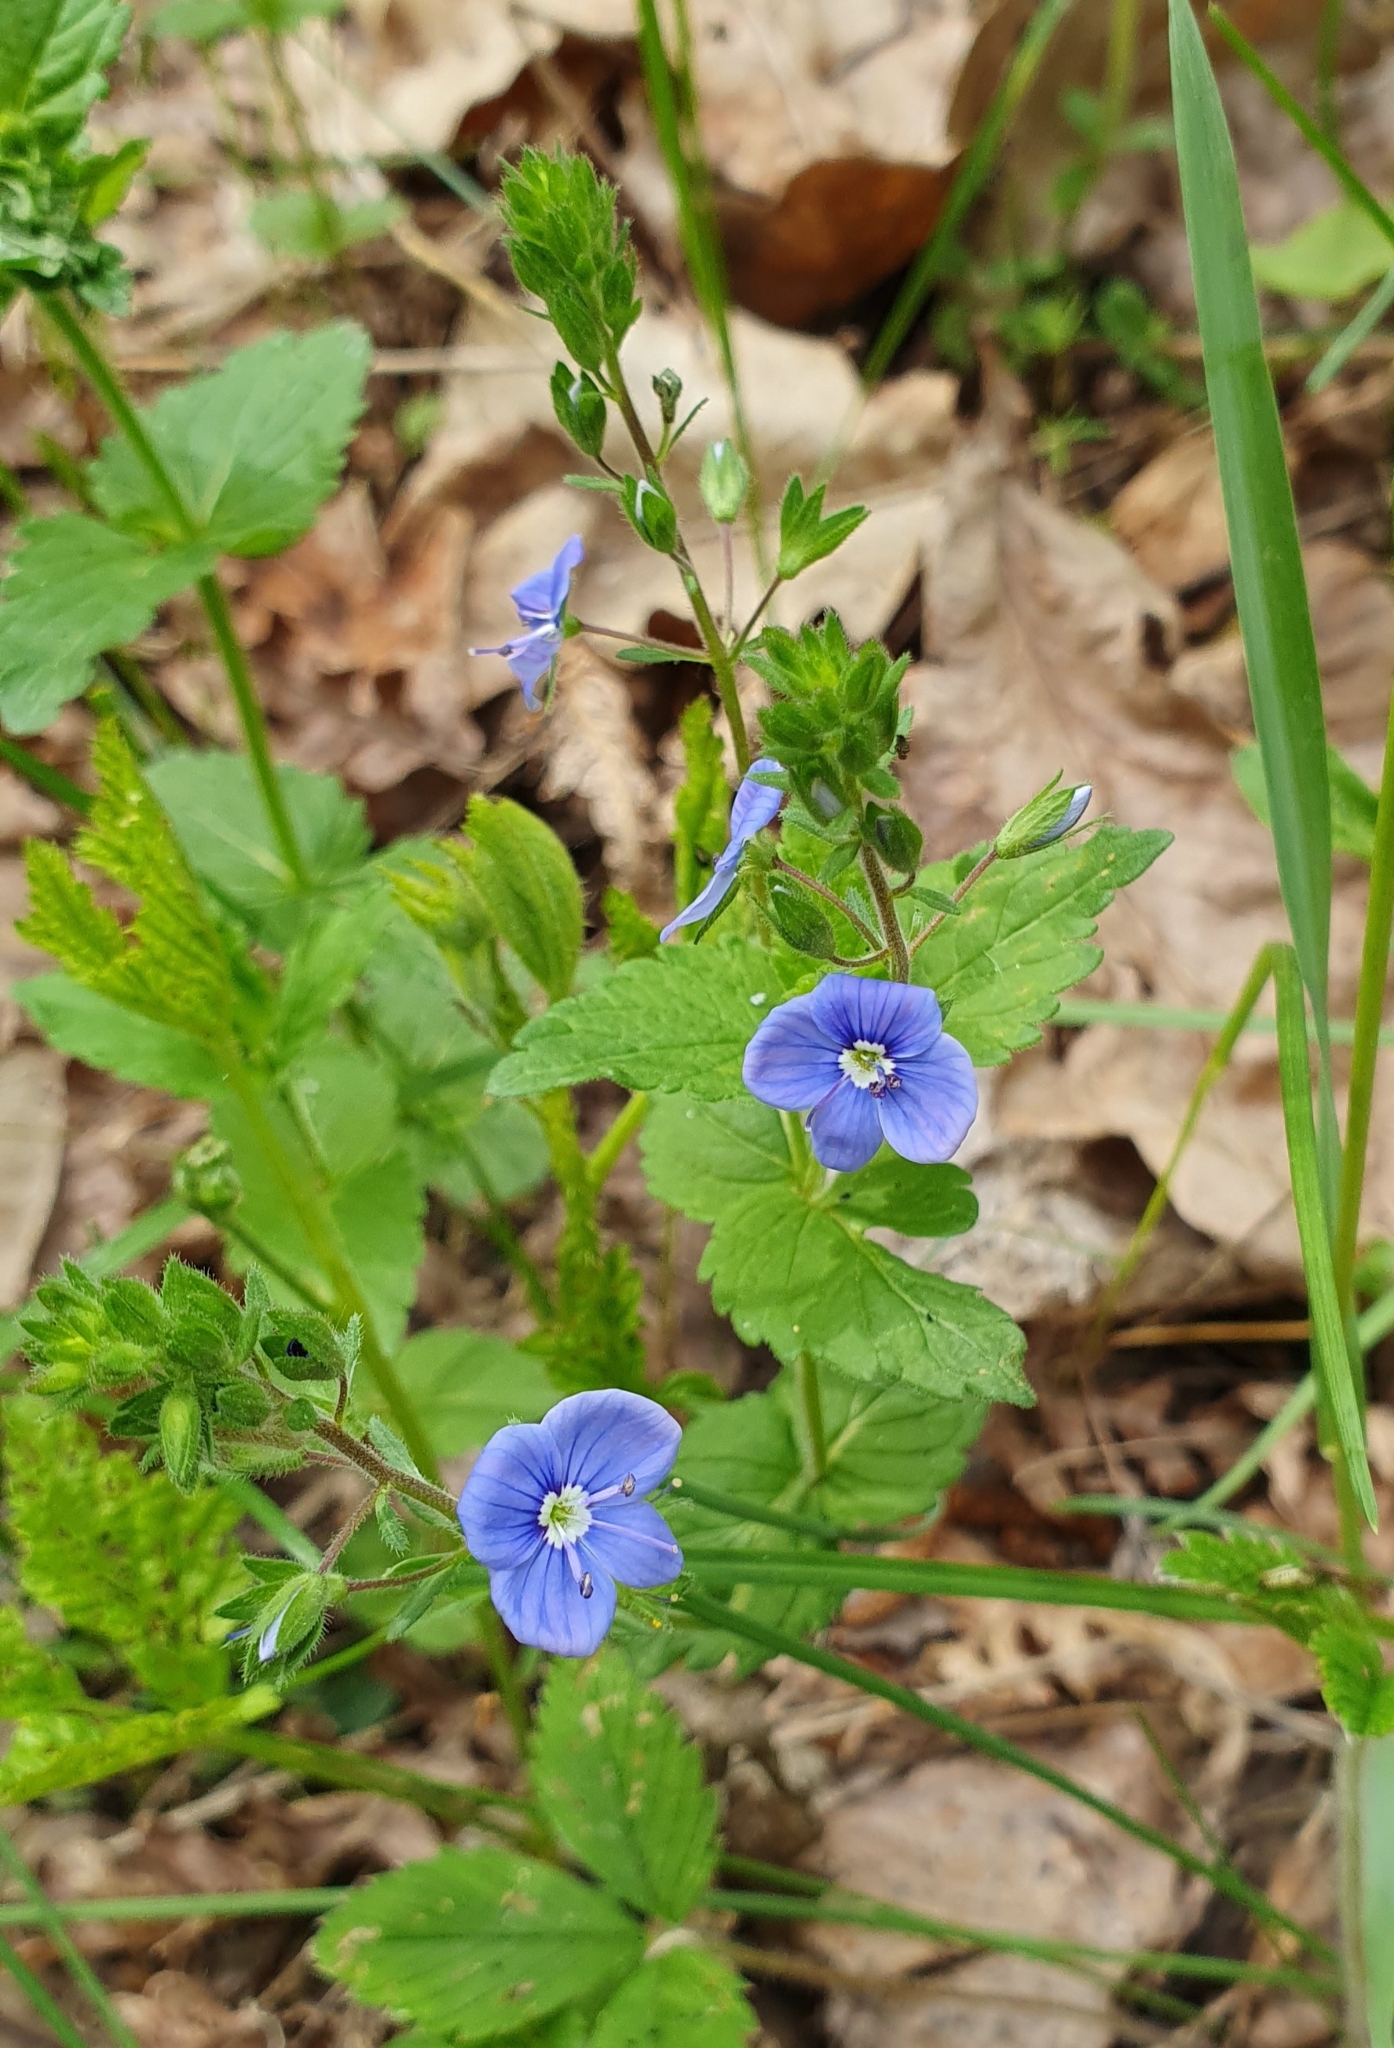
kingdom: Plantae
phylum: Tracheophyta
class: Magnoliopsida
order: Lamiales
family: Plantaginaceae
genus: Veronica
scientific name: Veronica chamaedrys
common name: Germander speedwell
